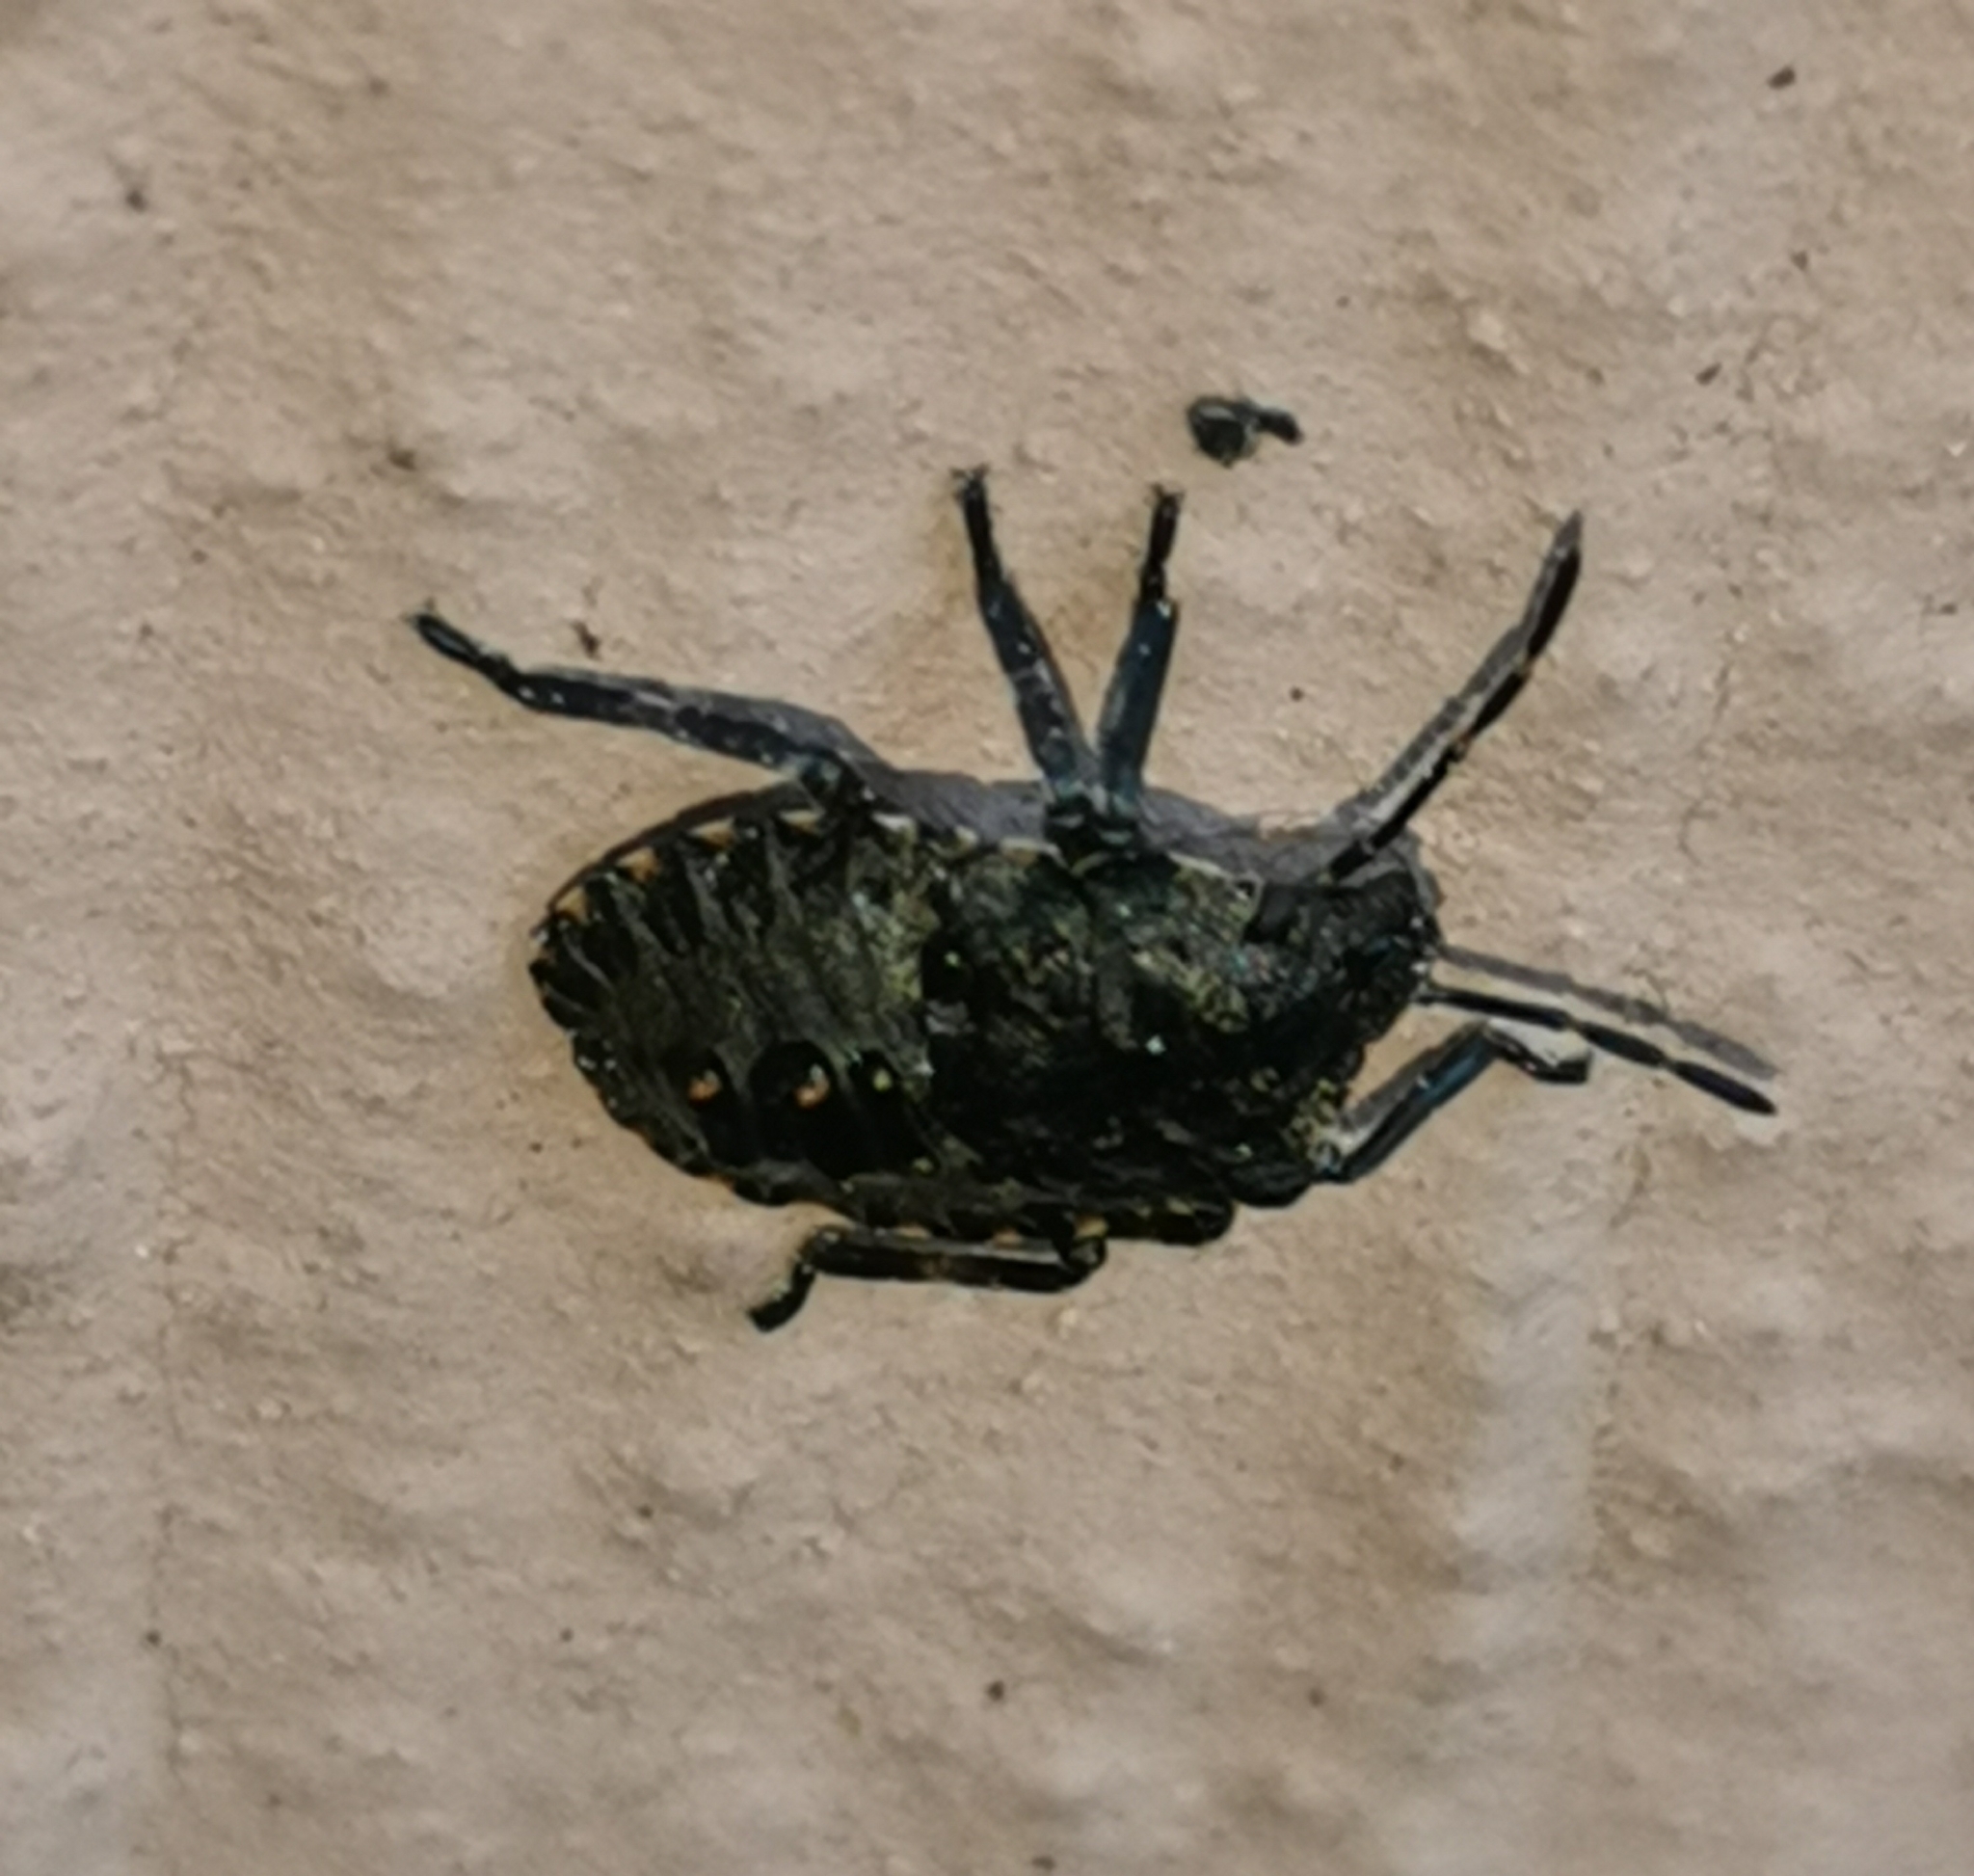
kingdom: Animalia
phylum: Arthropoda
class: Insecta
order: Hemiptera
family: Pentatomidae
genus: Pentatoma
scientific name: Pentatoma rufipes
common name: Forest bug
